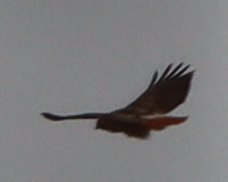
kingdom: Animalia
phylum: Chordata
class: Aves
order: Accipitriformes
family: Accipitridae
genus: Buteo
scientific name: Buteo jamaicensis
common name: Red-tailed hawk
